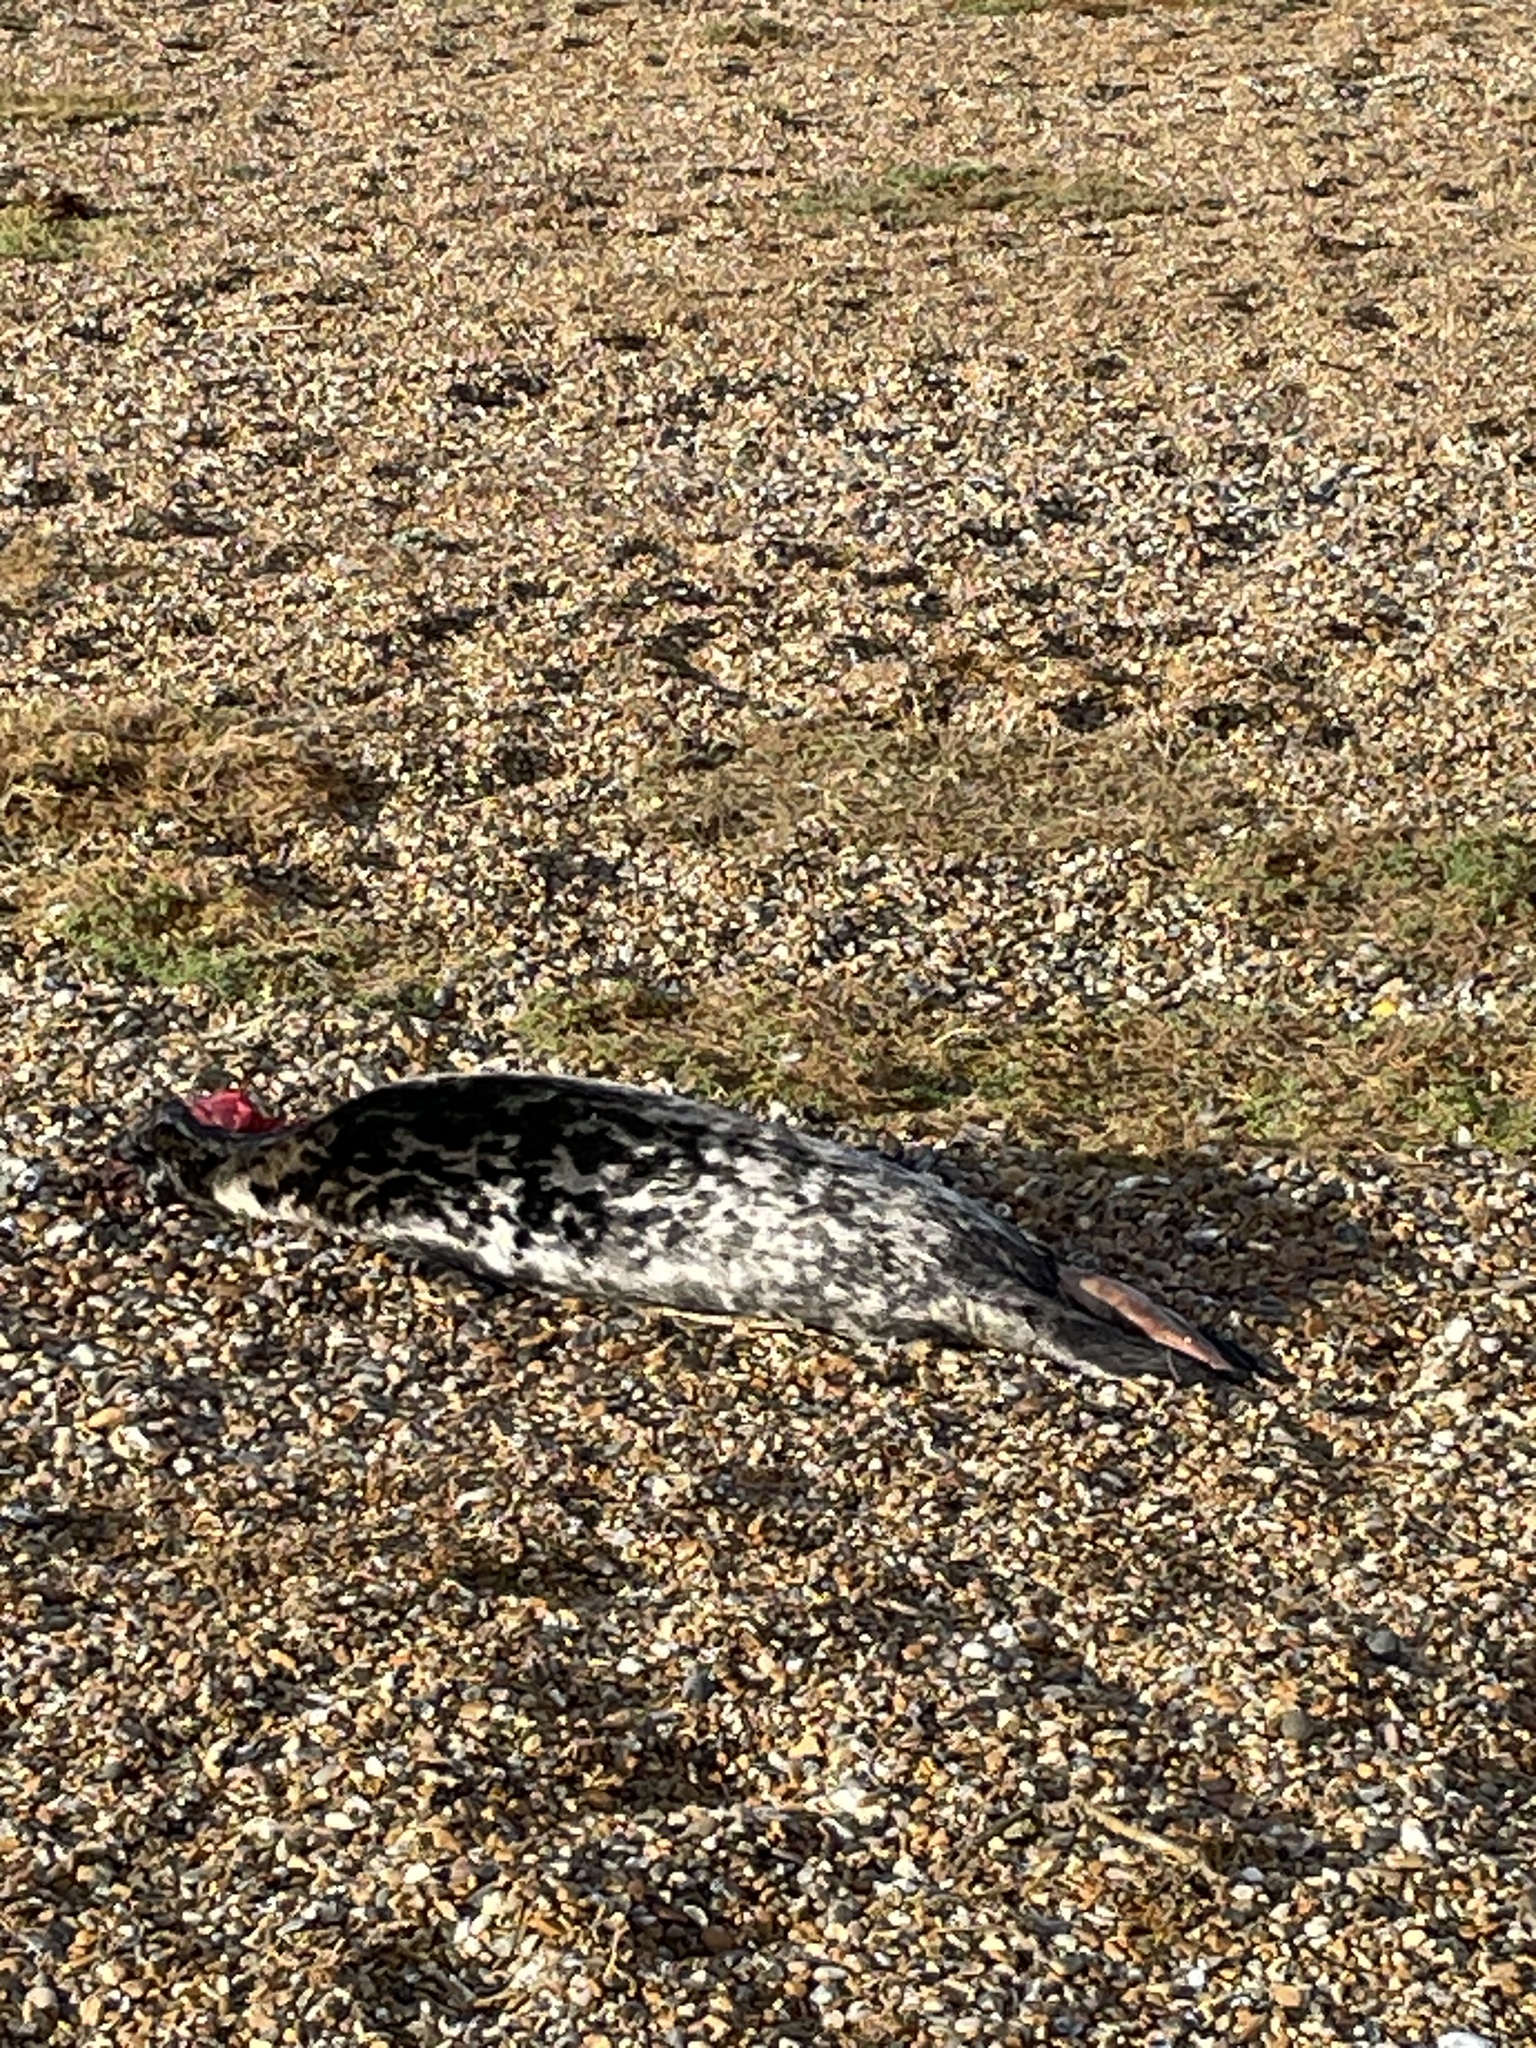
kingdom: Animalia
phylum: Chordata
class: Mammalia
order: Carnivora
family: Phocidae
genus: Halichoerus
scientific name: Halichoerus grypus
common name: Grey seal
